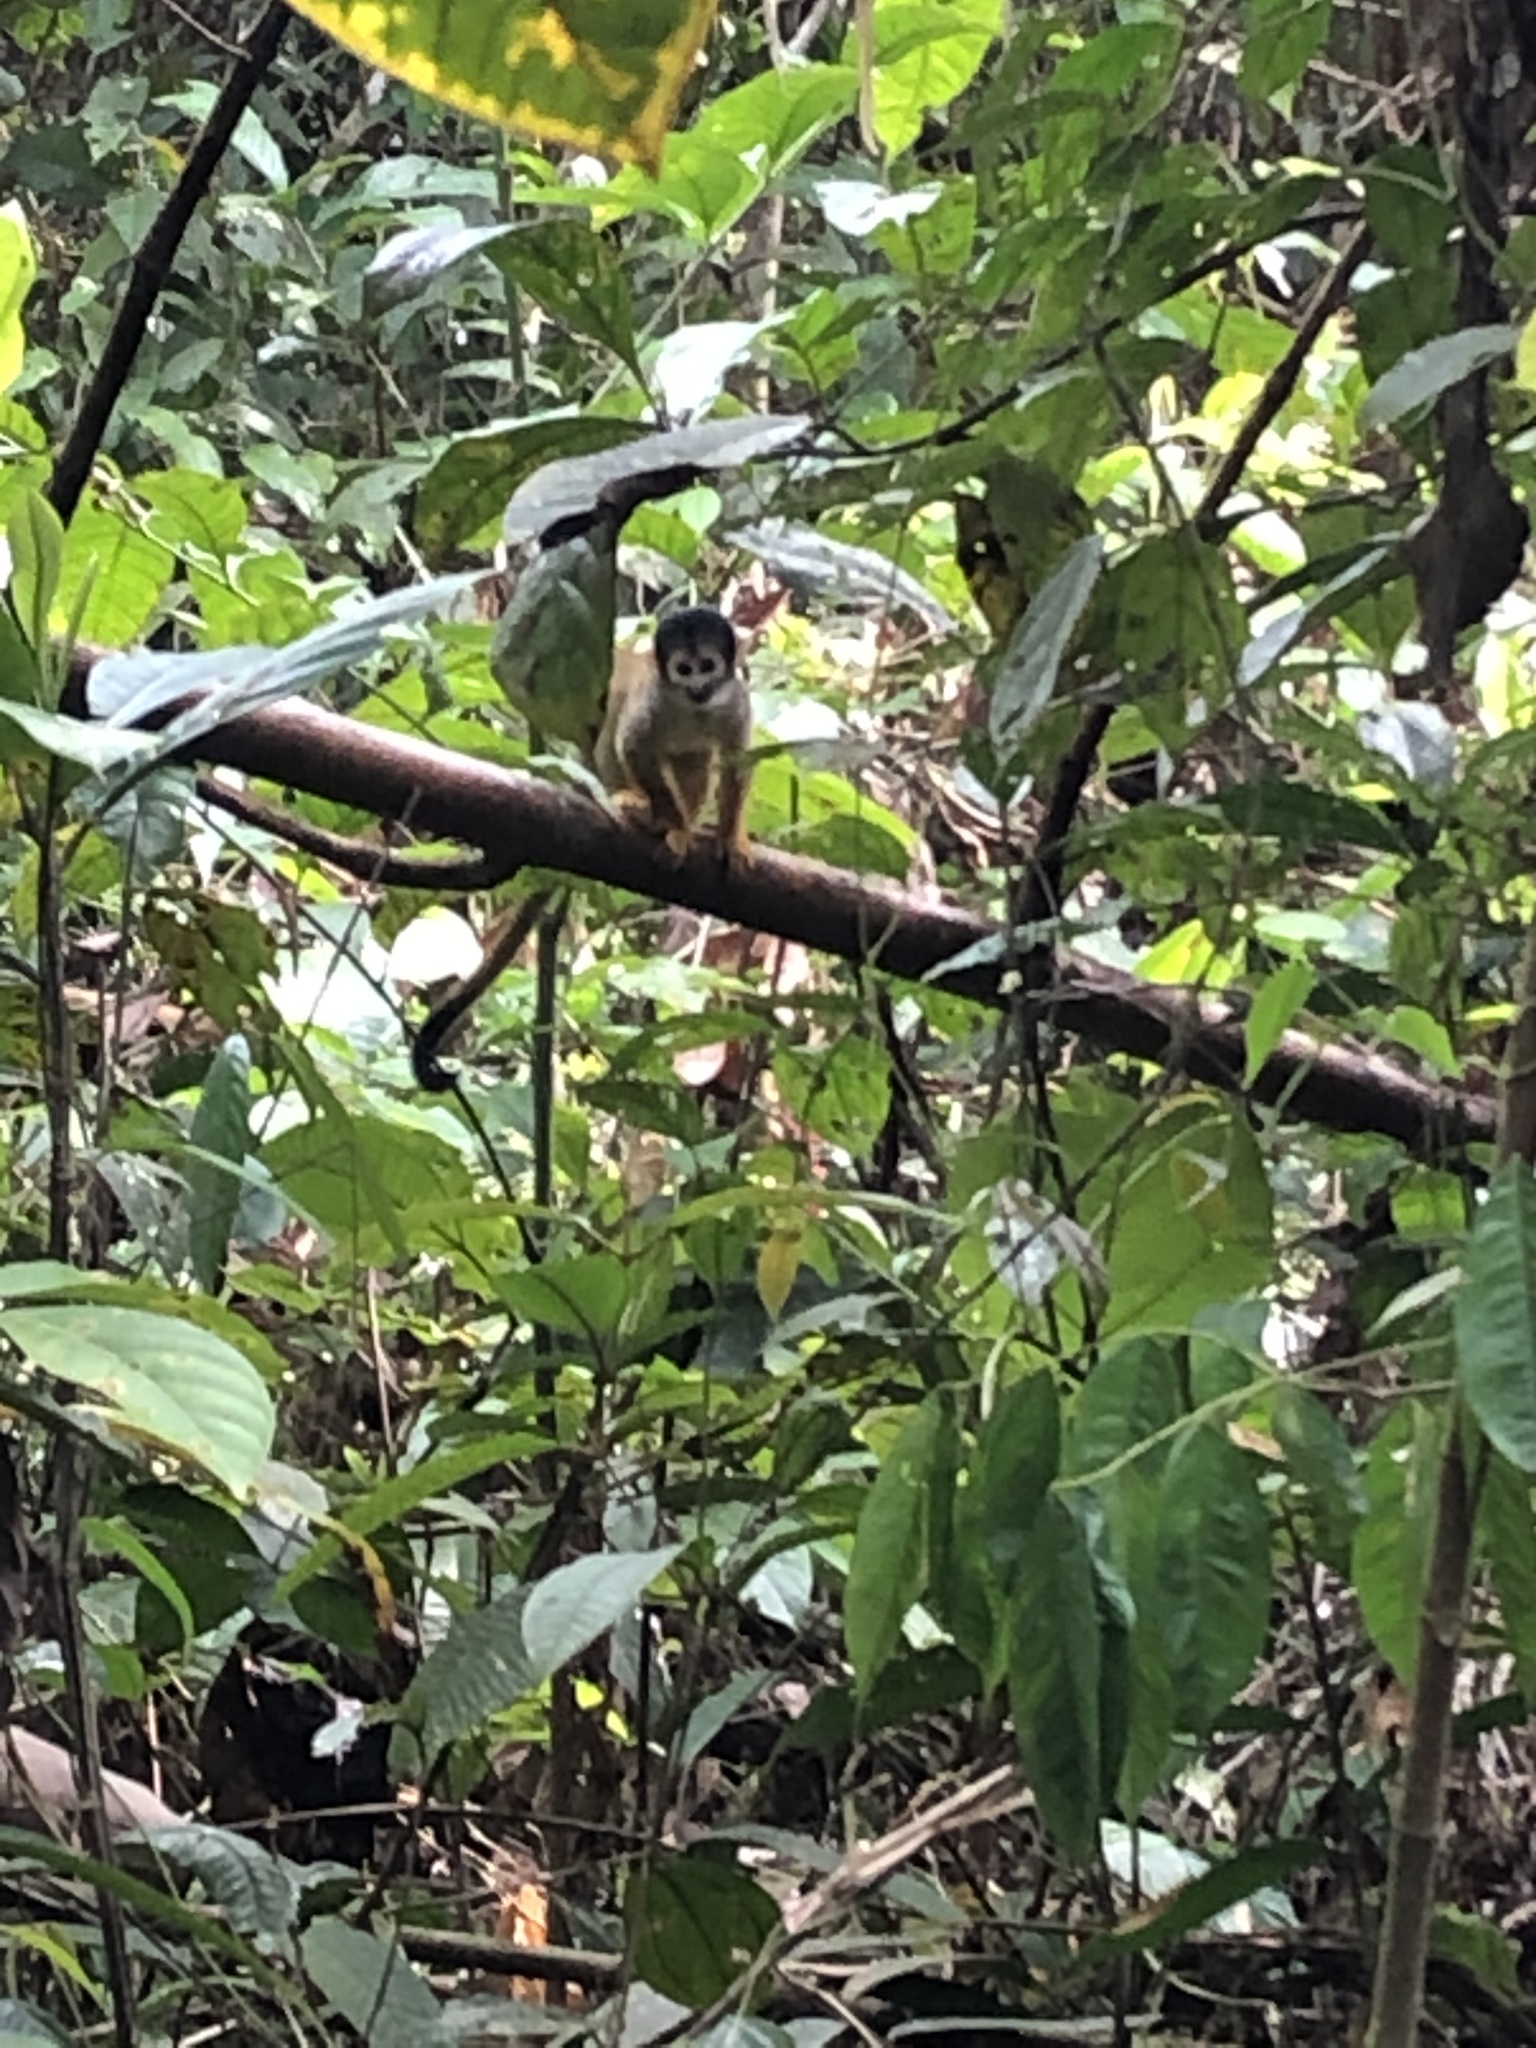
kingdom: Animalia
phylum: Chordata
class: Mammalia
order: Primates
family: Cebidae
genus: Saimiri
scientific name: Saimiri boliviensis
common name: Black-capped squirrel monkey
